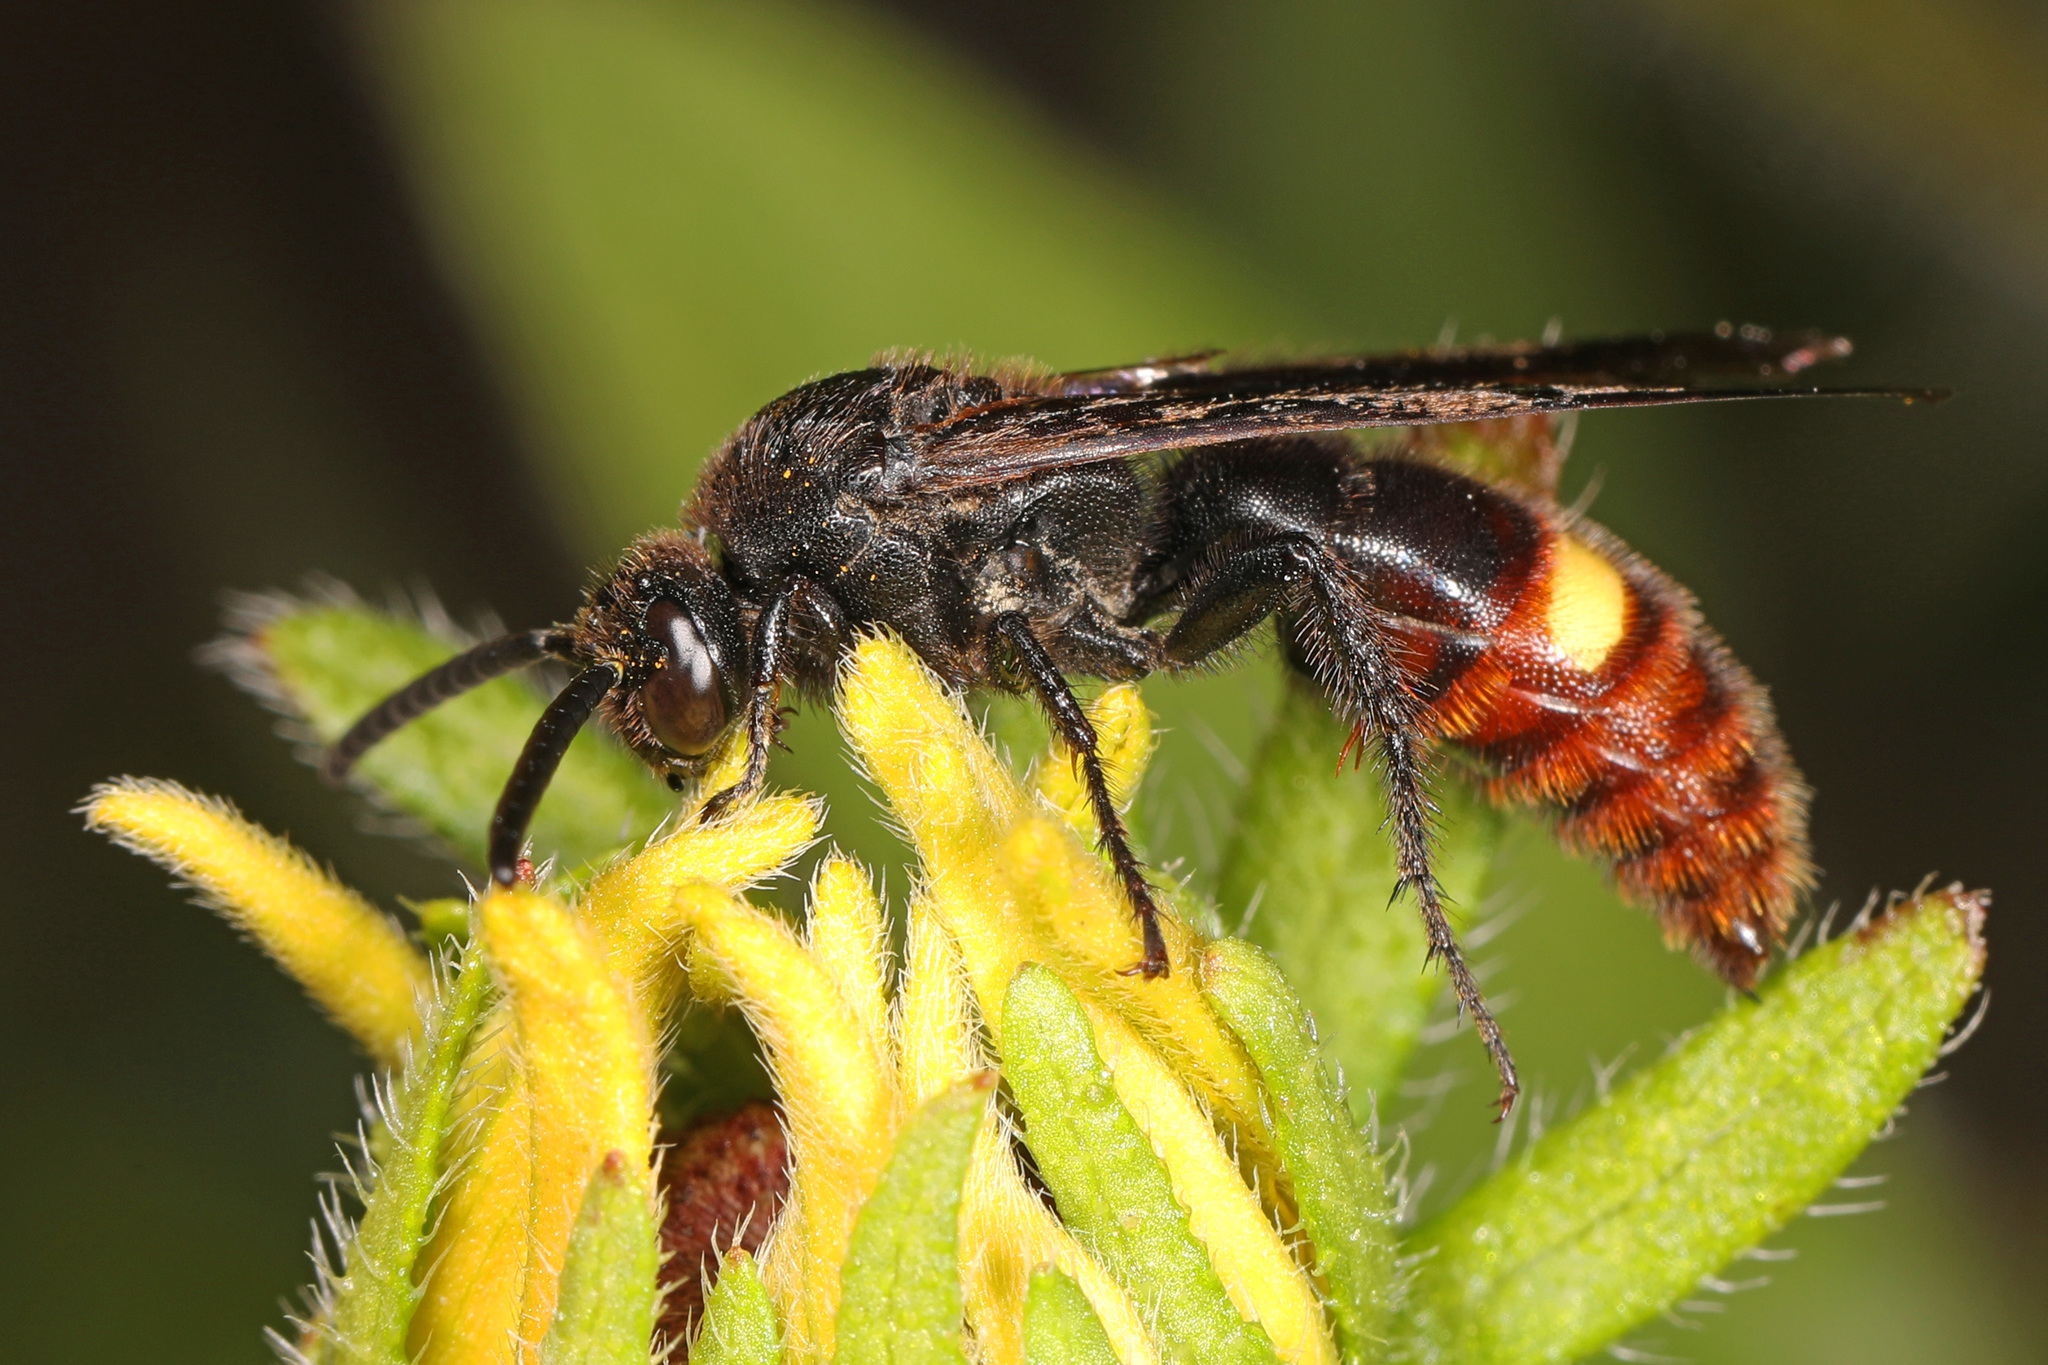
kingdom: Animalia
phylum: Arthropoda
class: Insecta
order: Hymenoptera
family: Scoliidae
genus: Scolia
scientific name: Scolia dubia
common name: Blue-winged scoliid wasp
